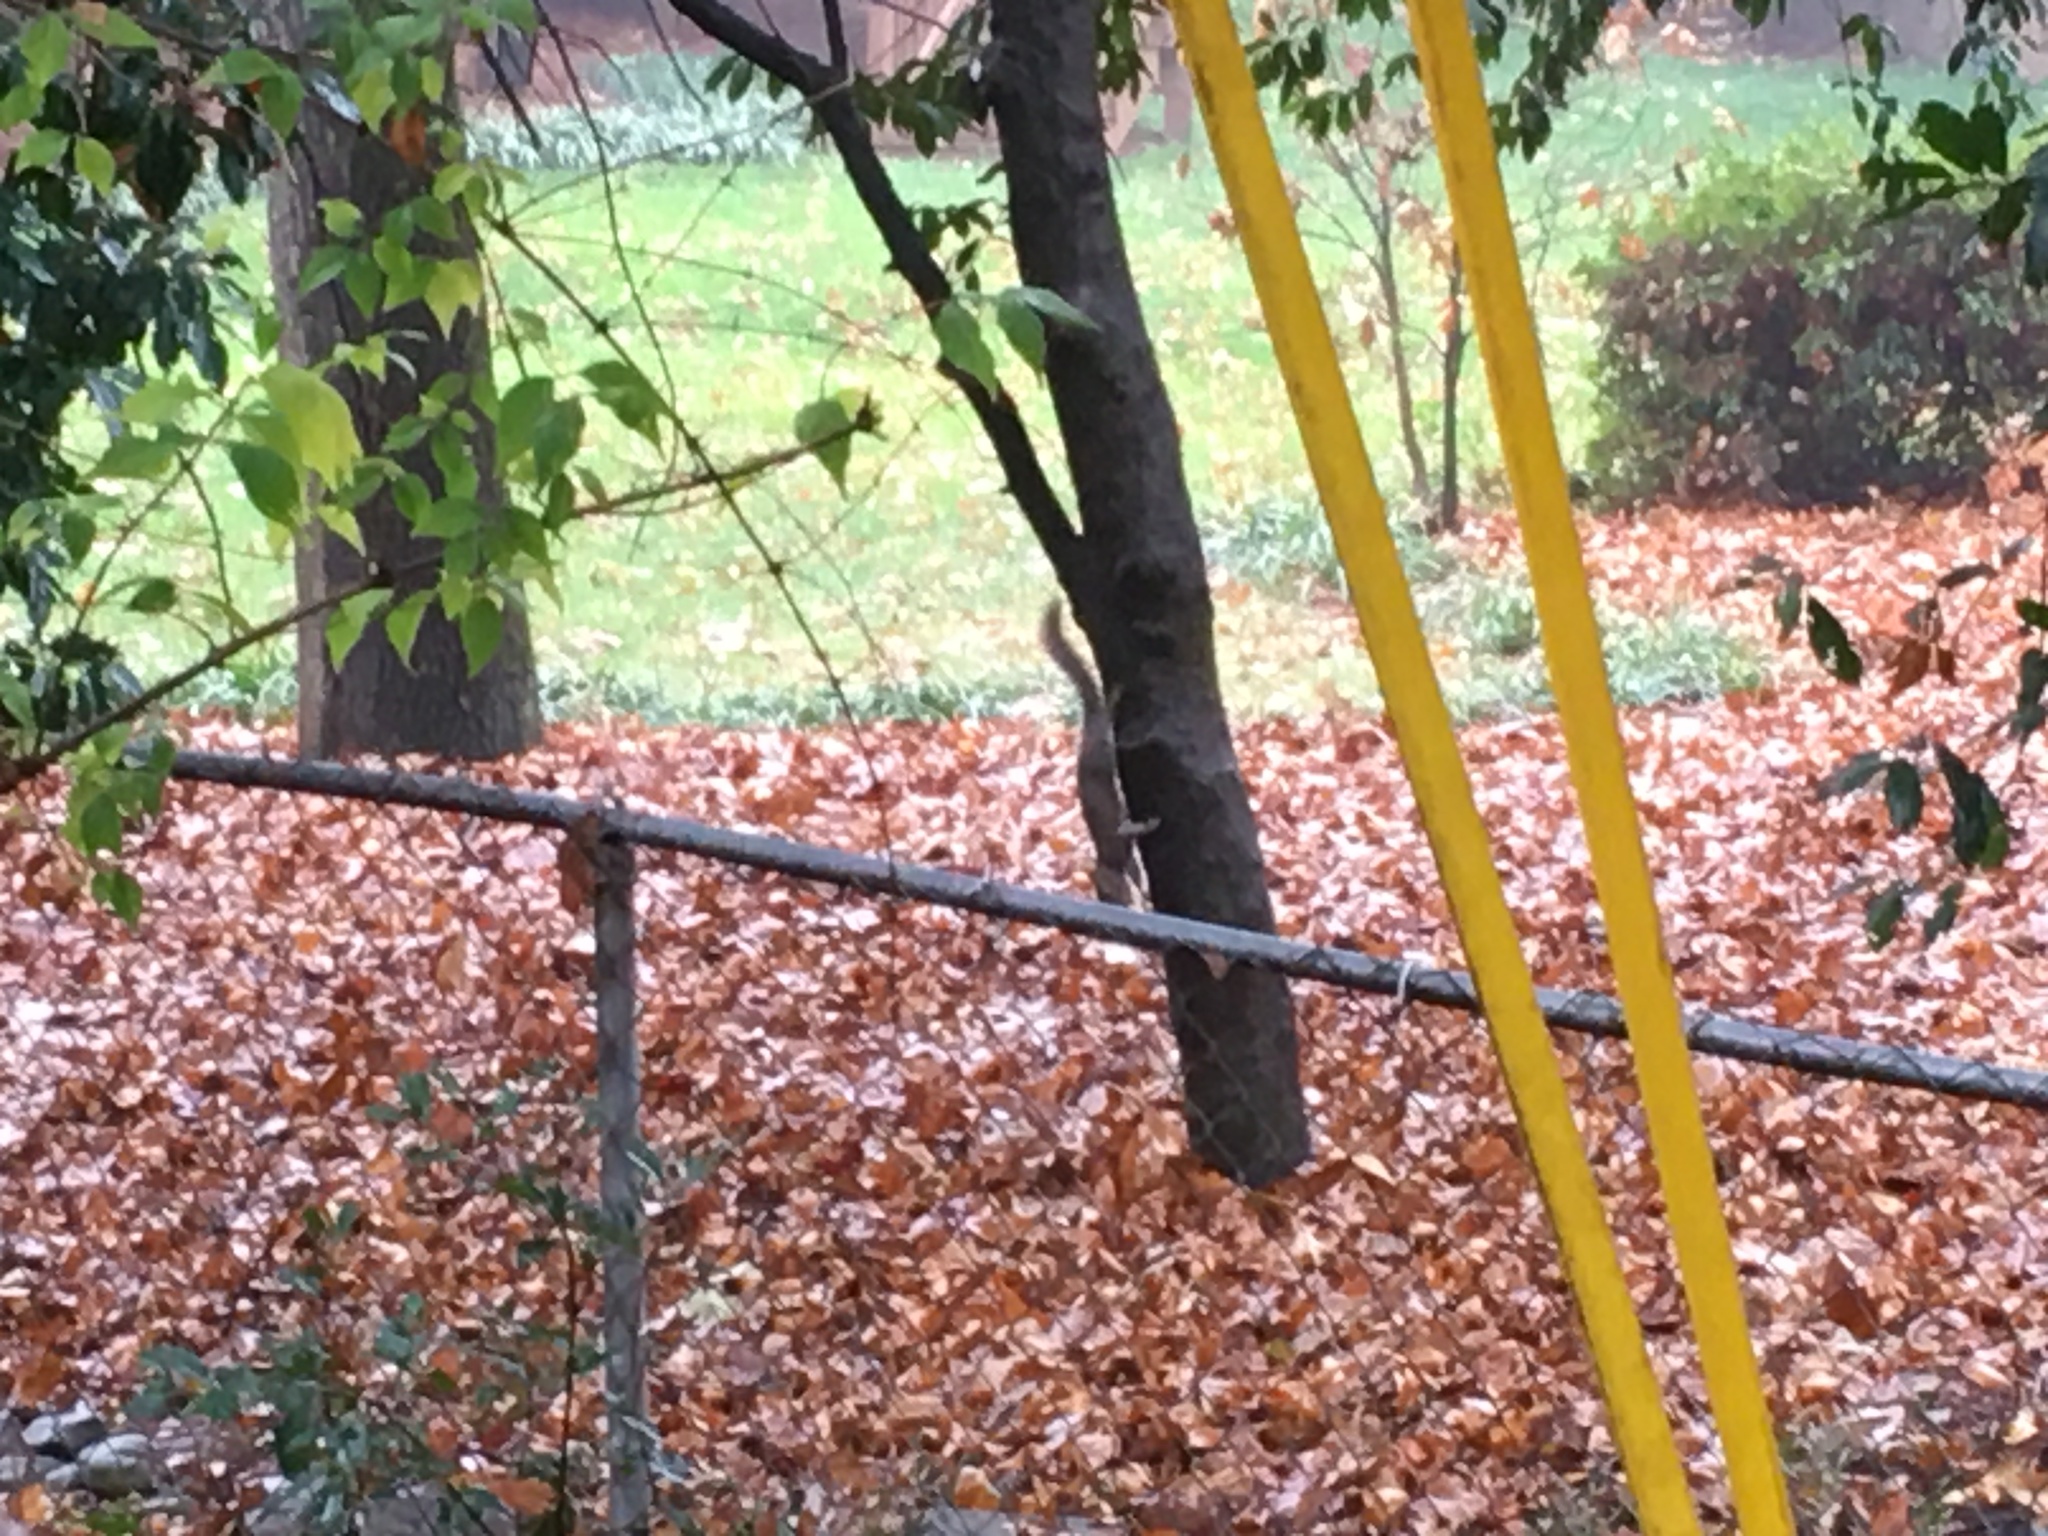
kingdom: Animalia
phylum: Chordata
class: Mammalia
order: Rodentia
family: Sciuridae
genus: Sciurus
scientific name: Sciurus carolinensis
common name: Eastern gray squirrel
